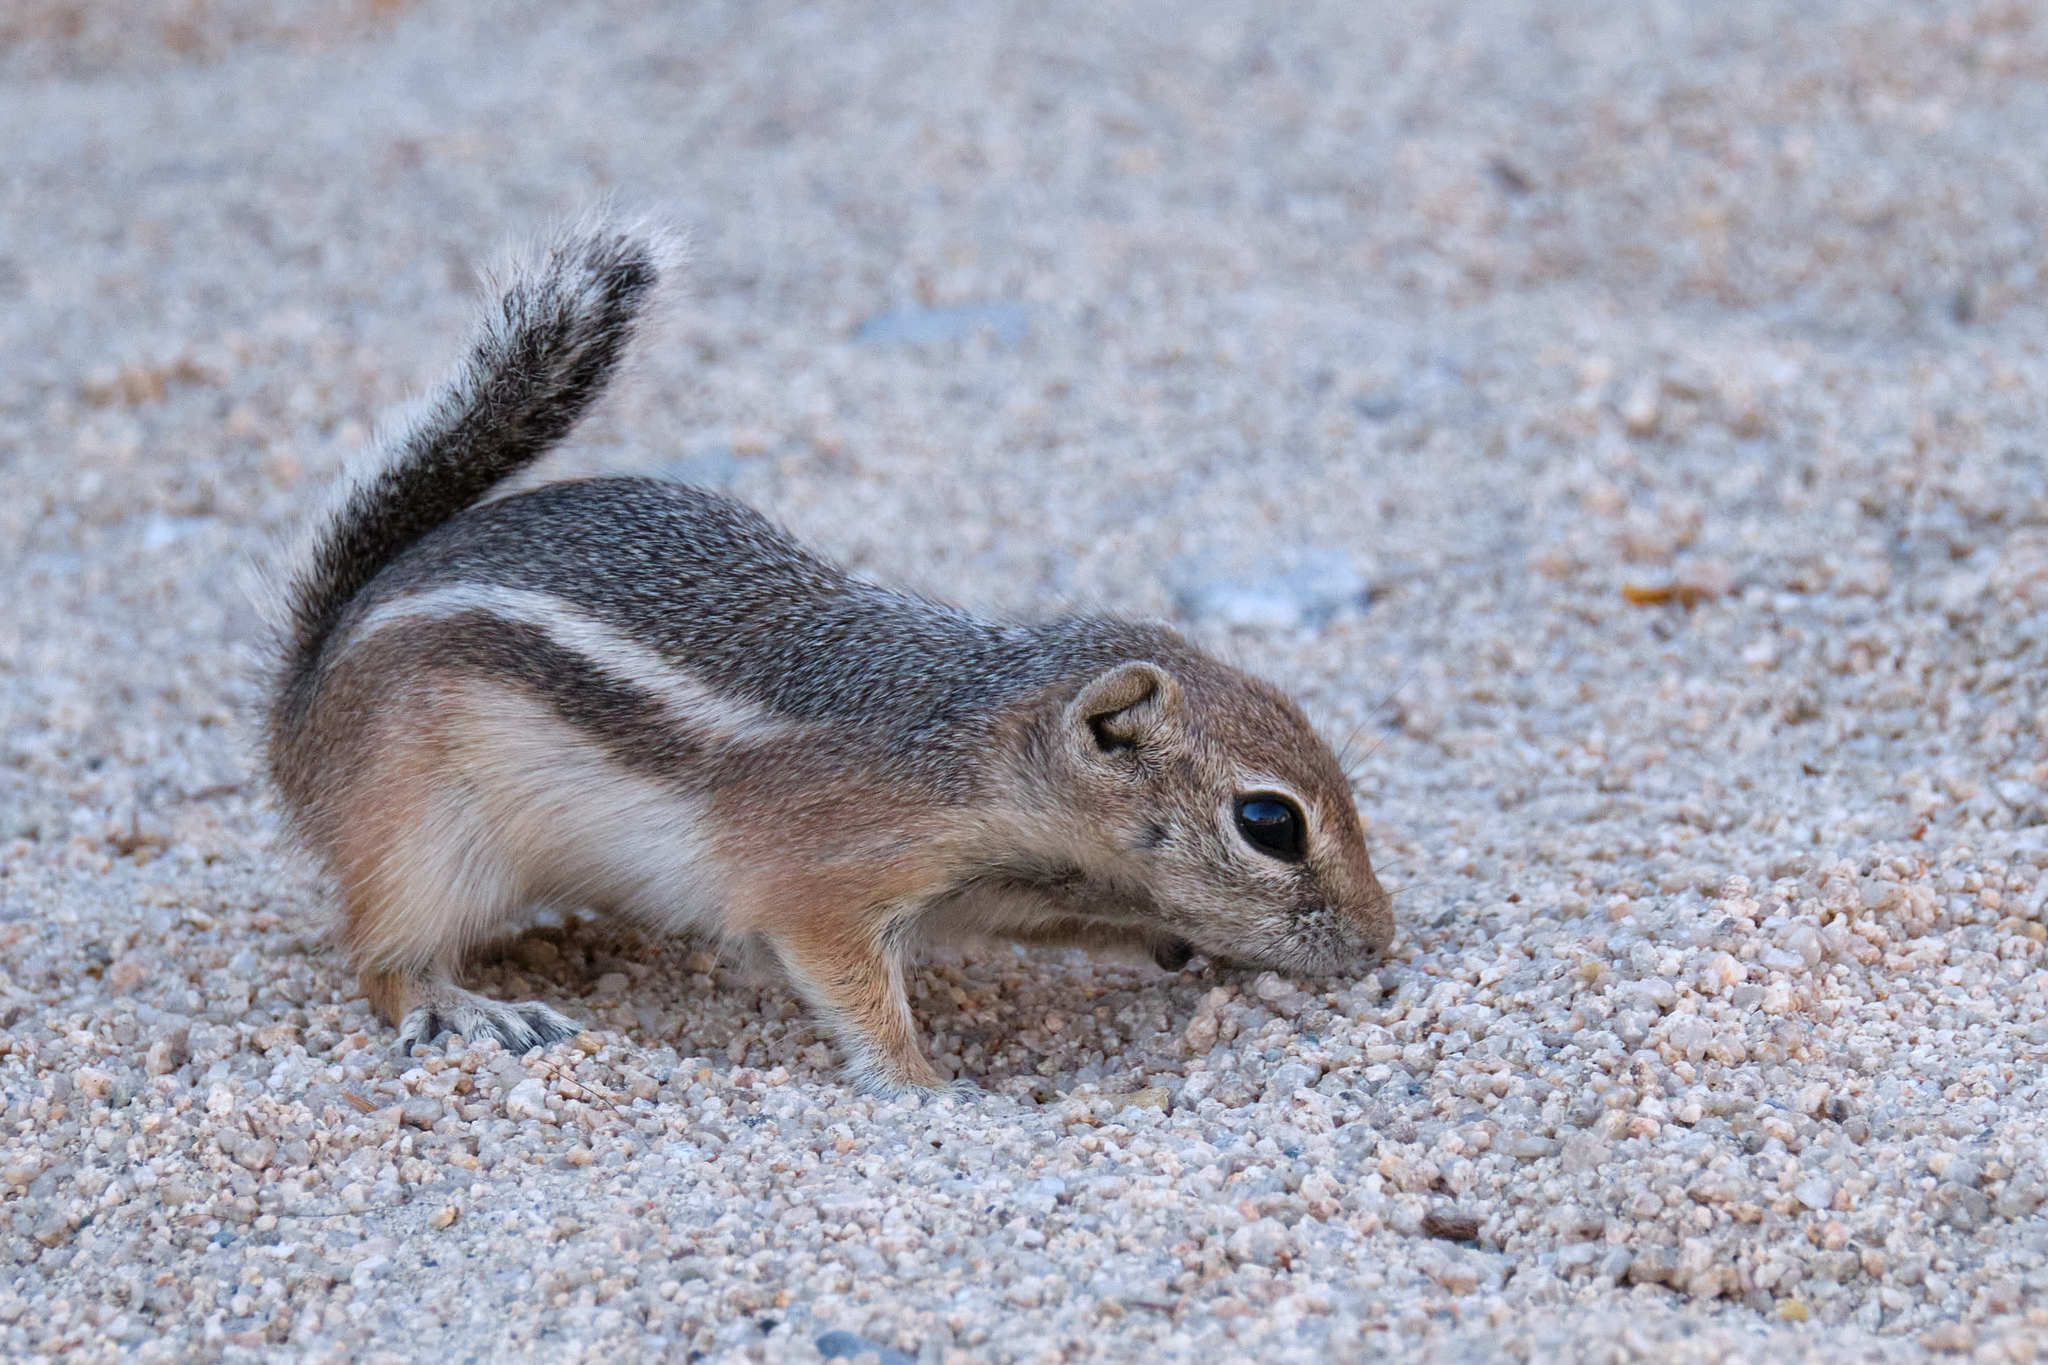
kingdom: Animalia
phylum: Chordata
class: Mammalia
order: Rodentia
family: Sciuridae
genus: Ammospermophilus
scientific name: Ammospermophilus leucurus
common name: White-tailed antelope squirrel
